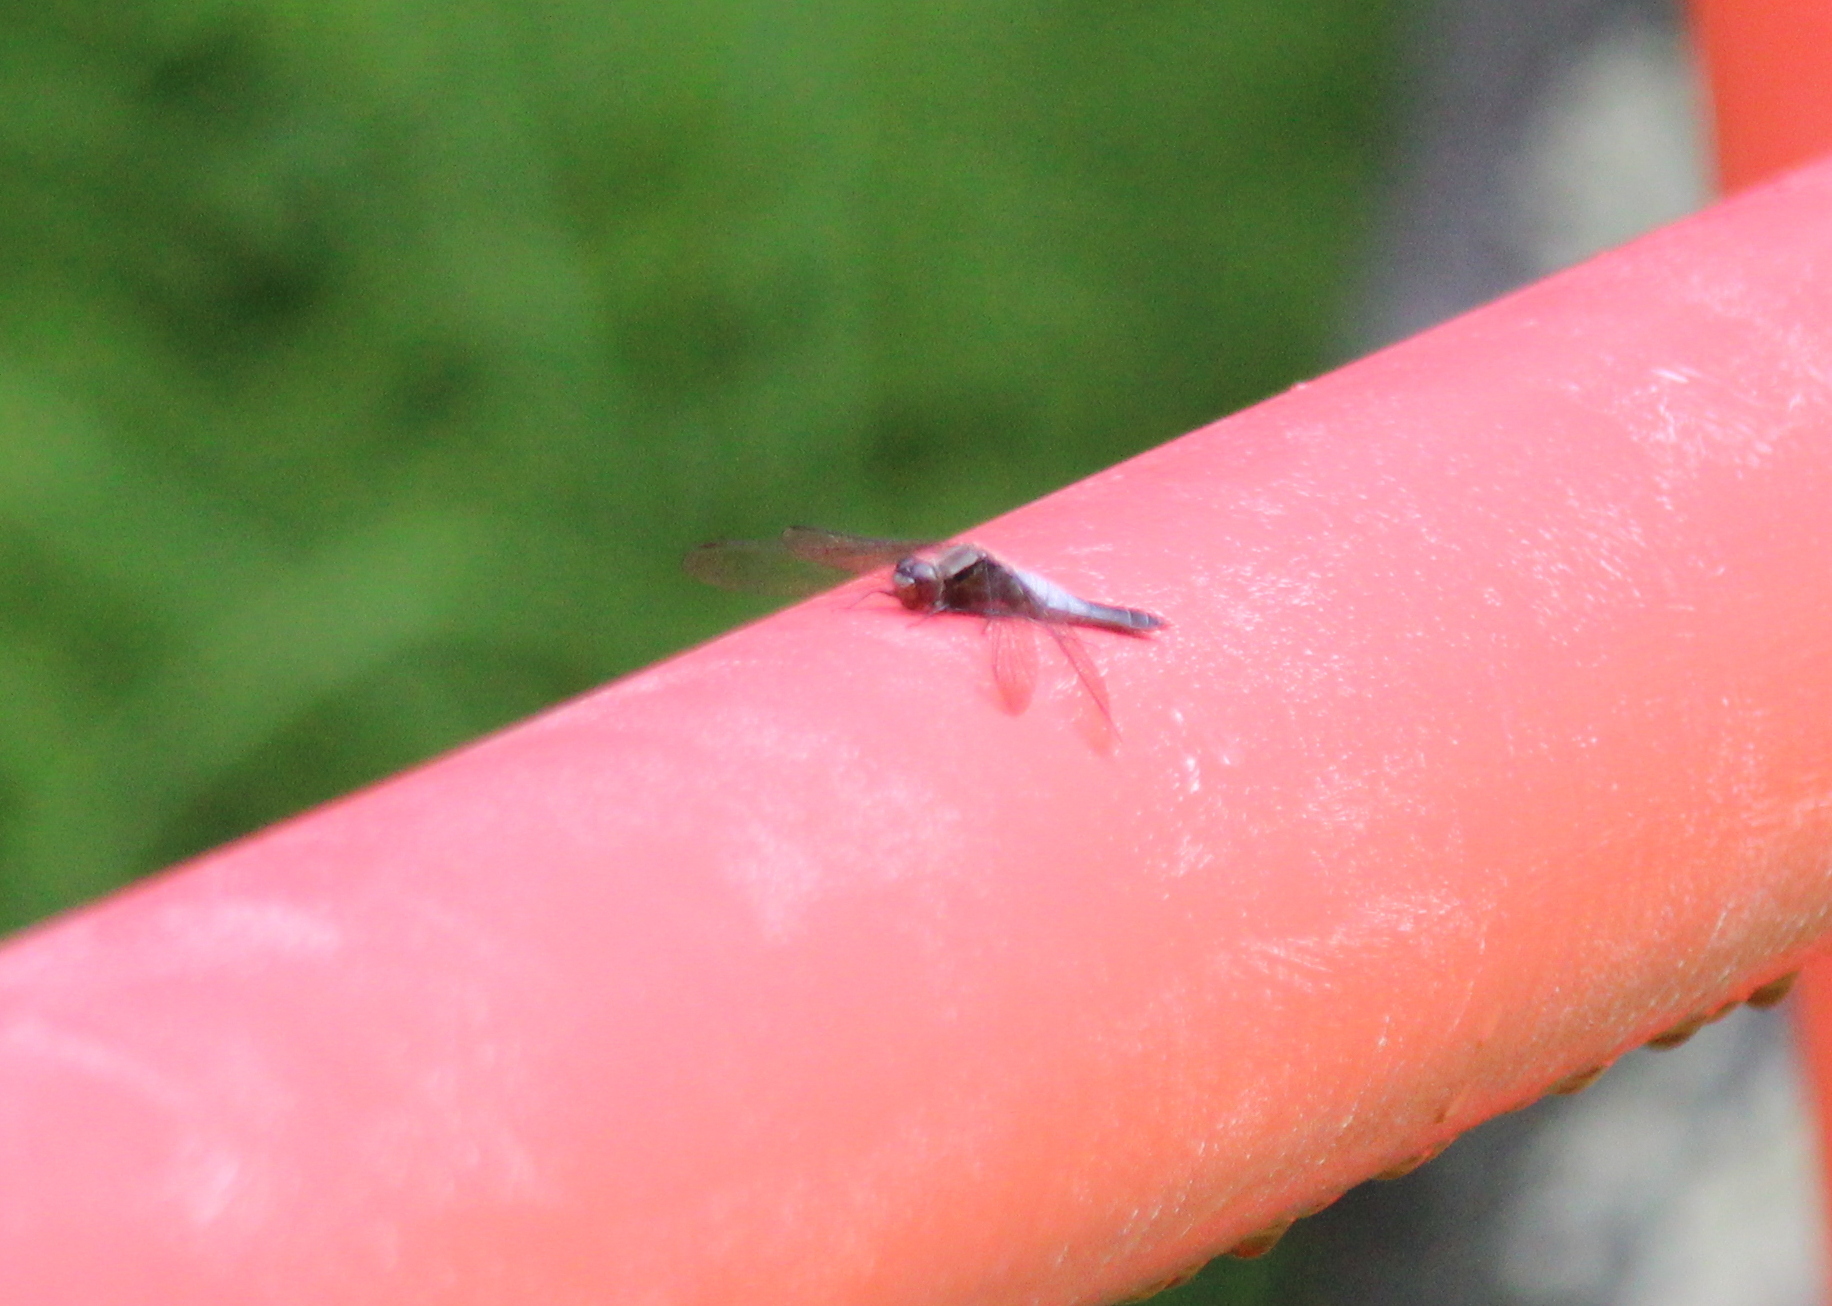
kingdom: Animalia
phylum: Arthropoda
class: Insecta
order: Odonata
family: Libellulidae
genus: Ladona
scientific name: Ladona julia
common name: Chalk-fronted corporal
